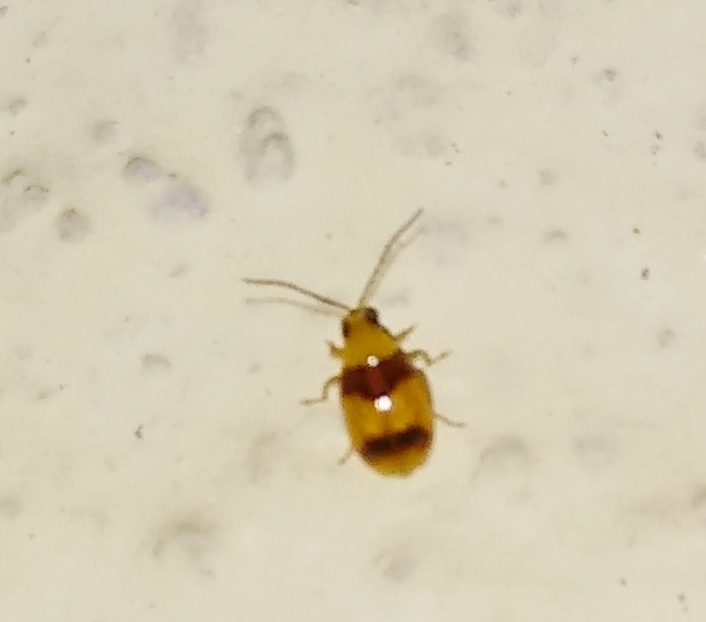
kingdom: Animalia
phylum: Arthropoda
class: Insecta
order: Coleoptera
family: Chrysomelidae
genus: Monolepta
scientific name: Monolepta
